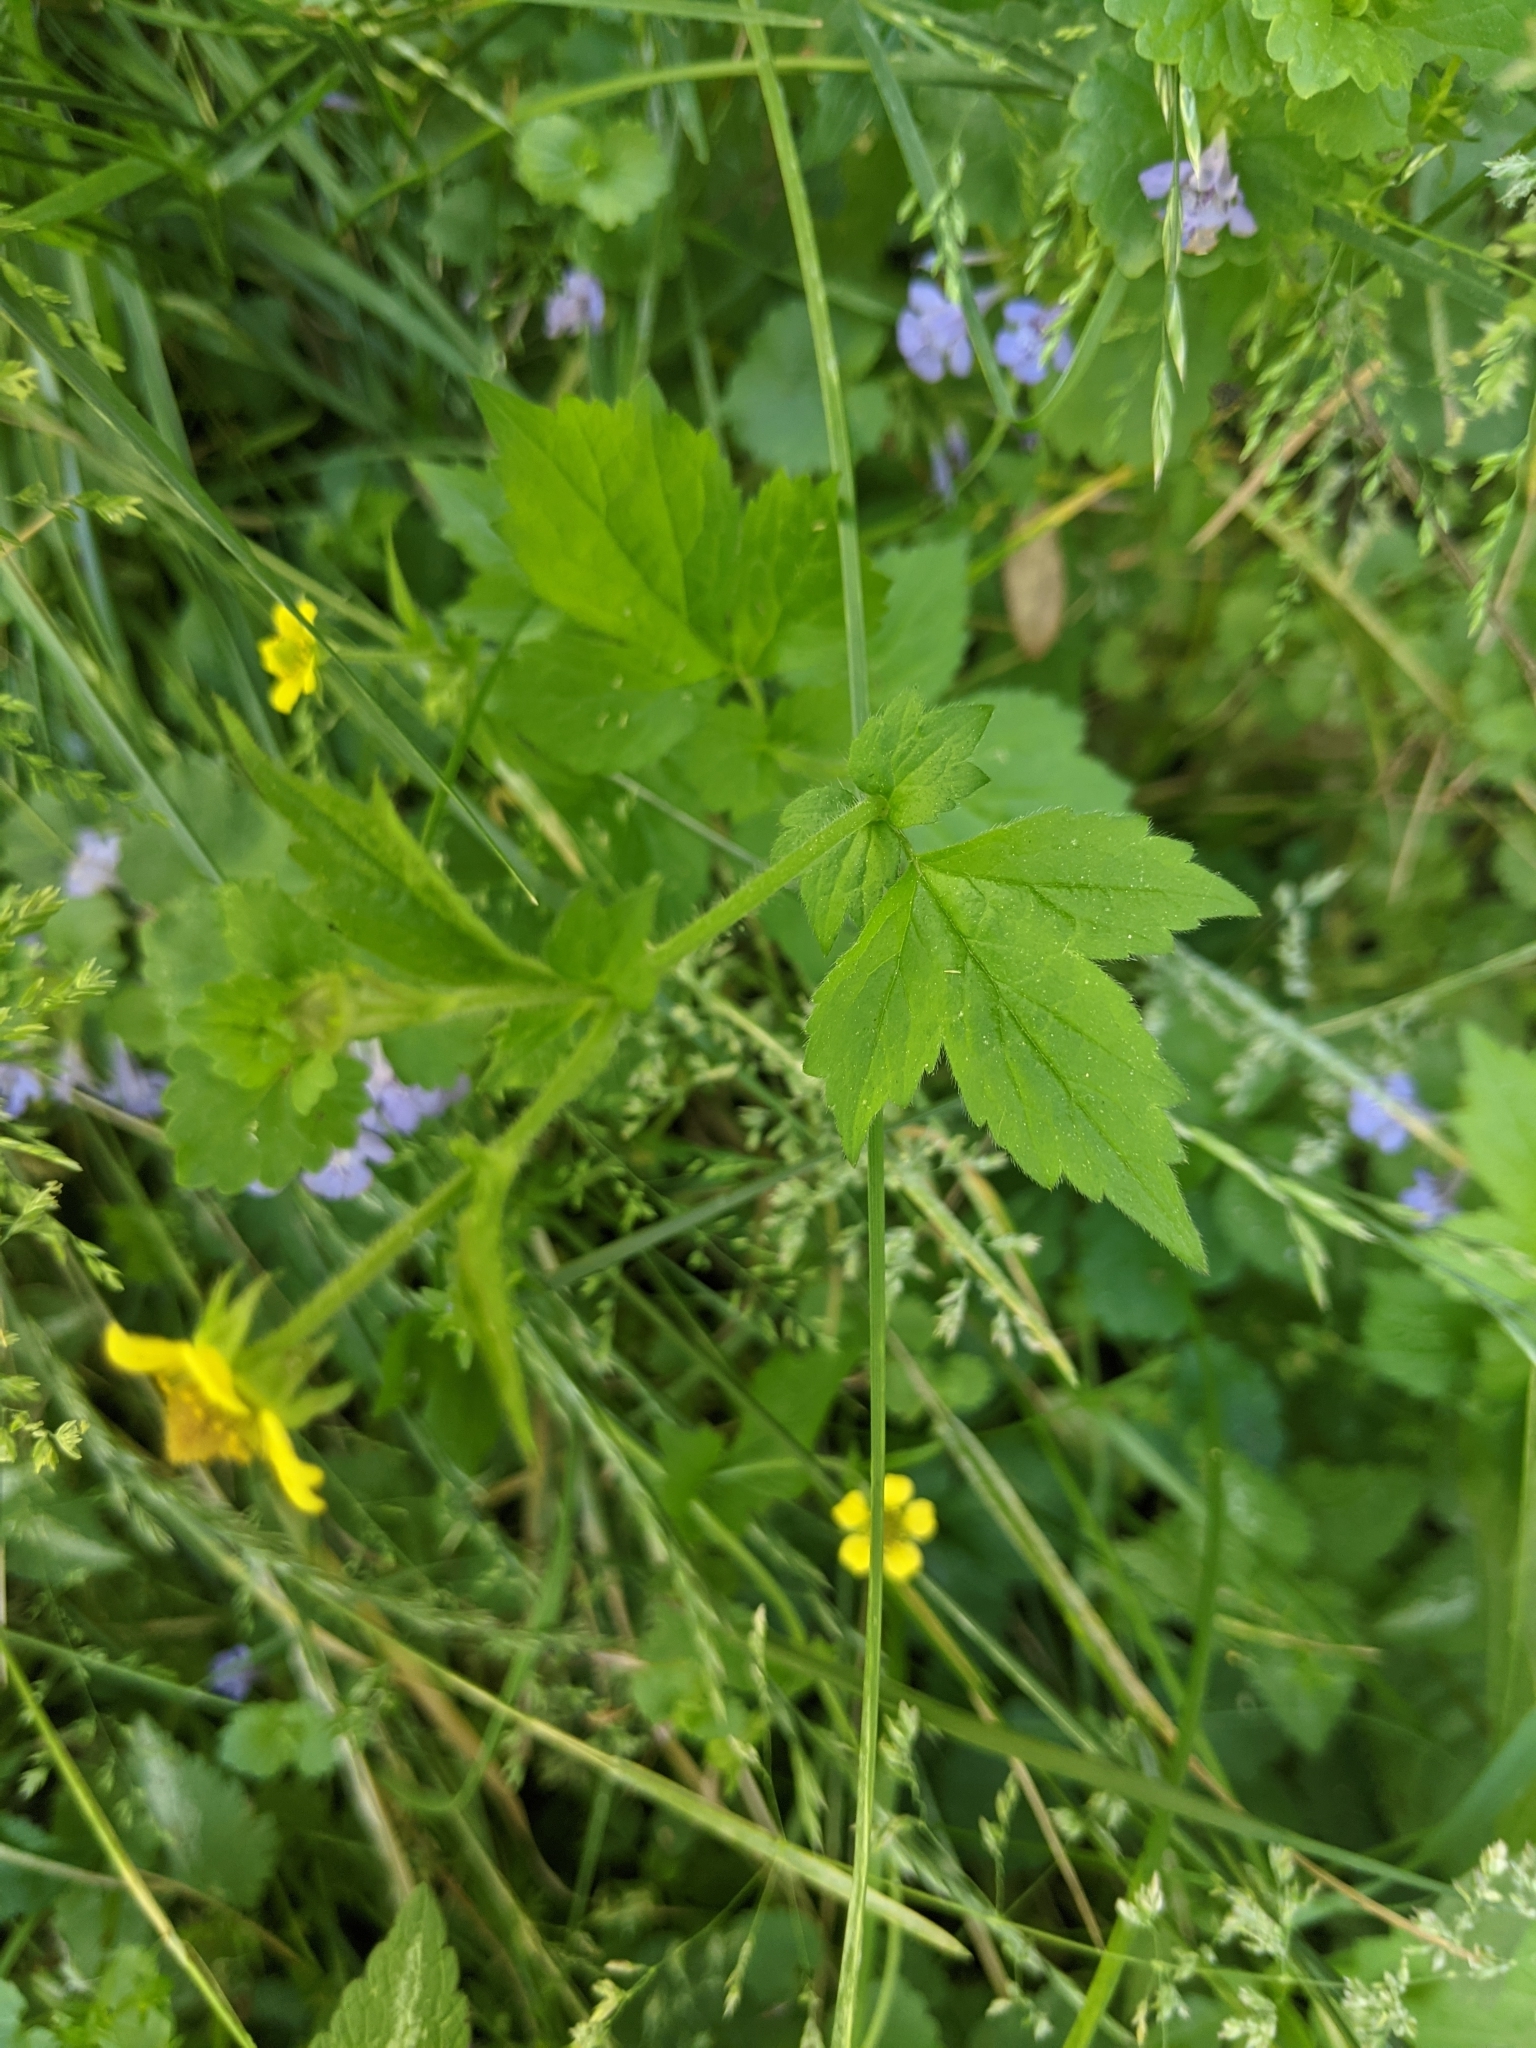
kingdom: Plantae
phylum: Tracheophyta
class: Magnoliopsida
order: Rosales
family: Rosaceae
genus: Geum
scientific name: Geum urbanum
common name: Wood avens
